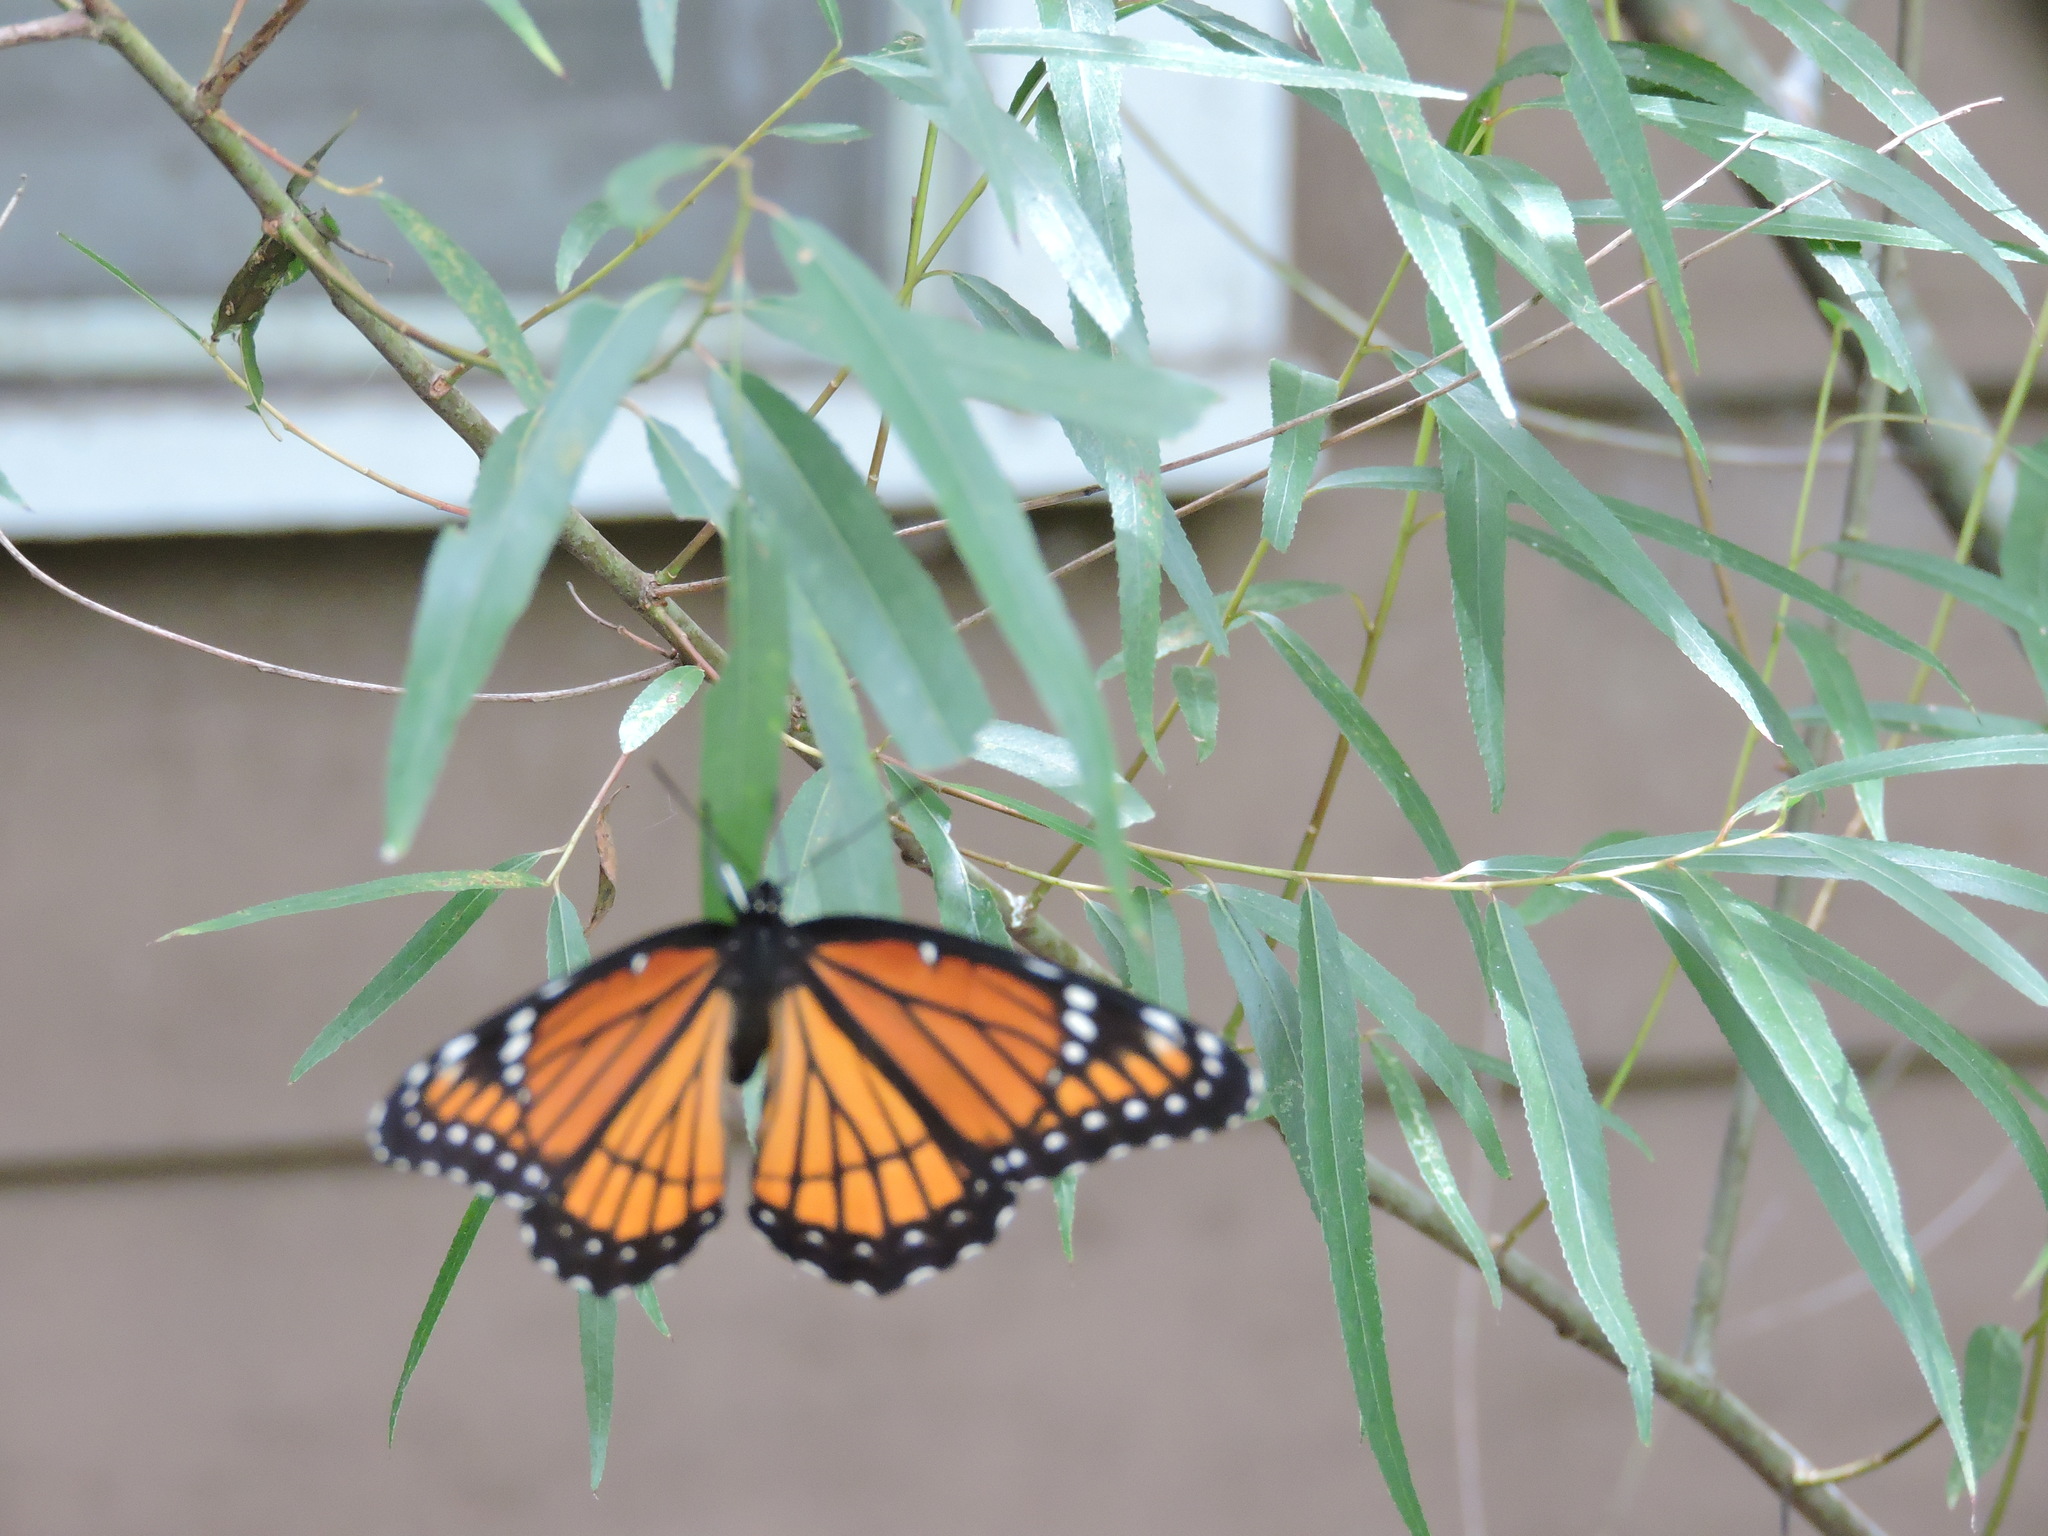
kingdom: Animalia
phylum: Arthropoda
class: Insecta
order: Lepidoptera
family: Nymphalidae
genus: Limenitis
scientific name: Limenitis archippus
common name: Viceroy
